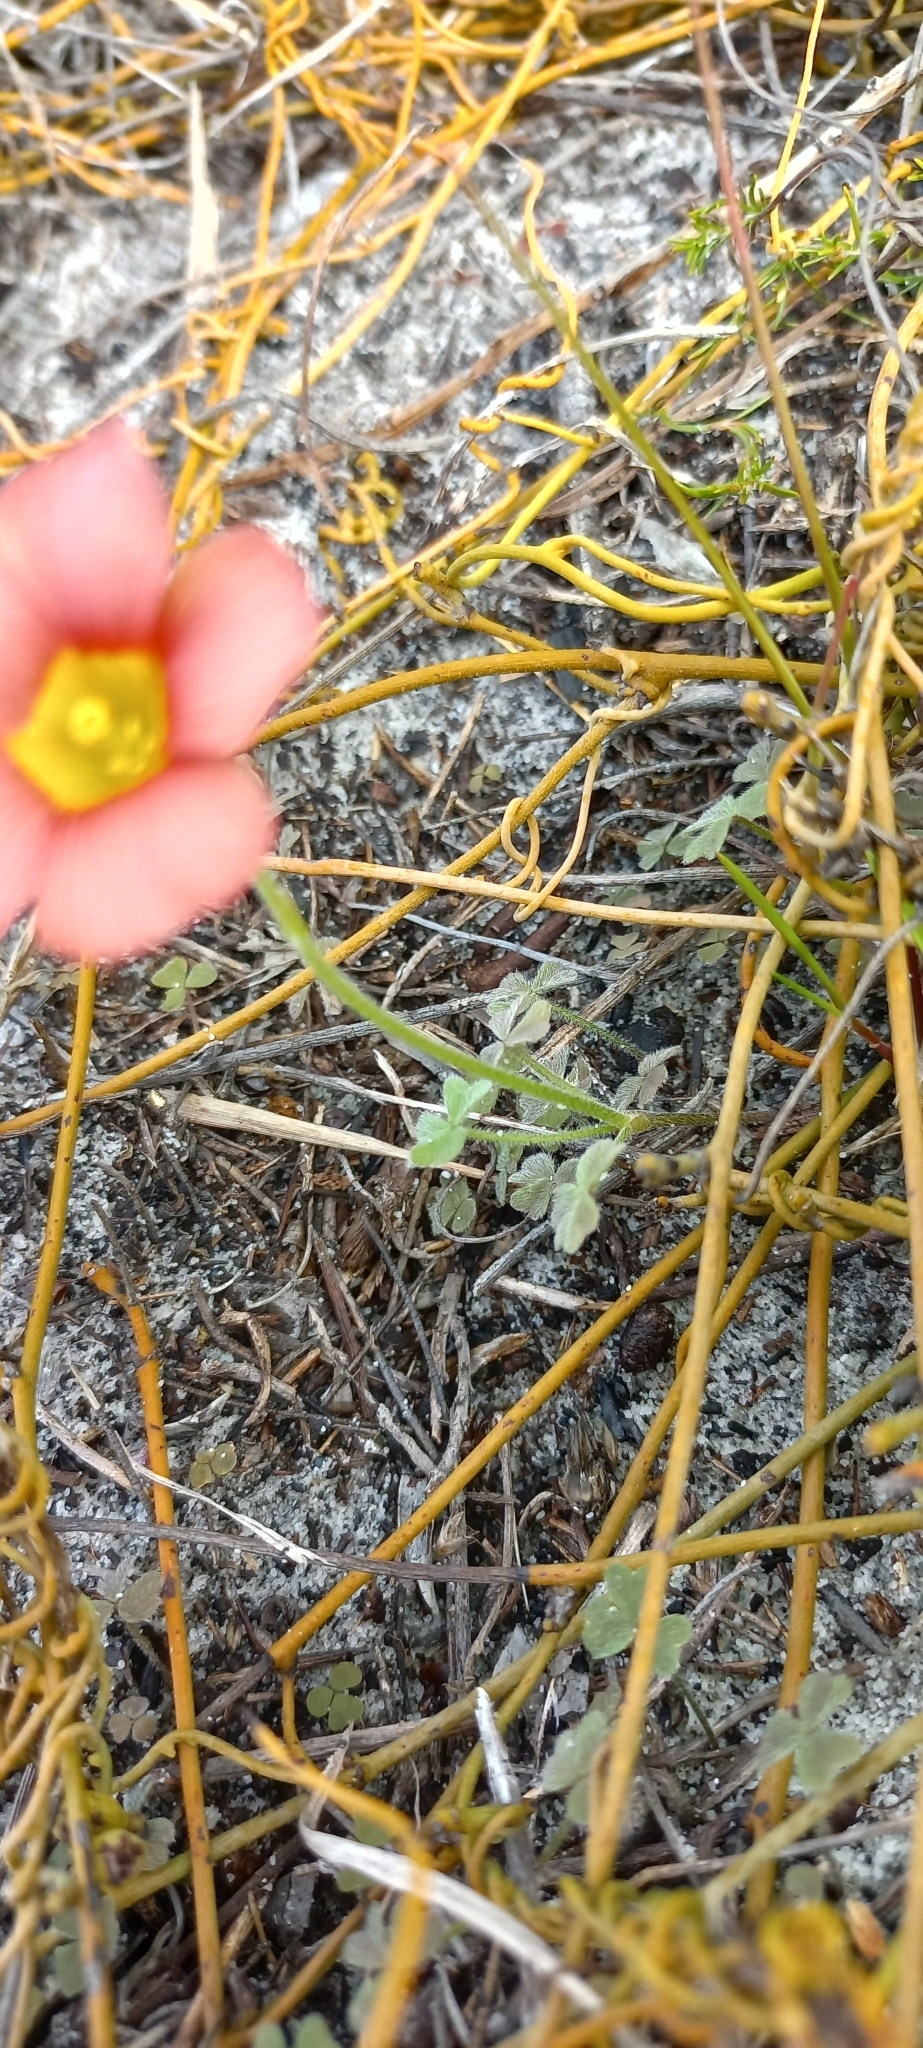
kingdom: Plantae
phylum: Tracheophyta
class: Magnoliopsida
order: Oxalidales
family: Oxalidaceae
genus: Oxalis
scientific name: Oxalis obtusa
